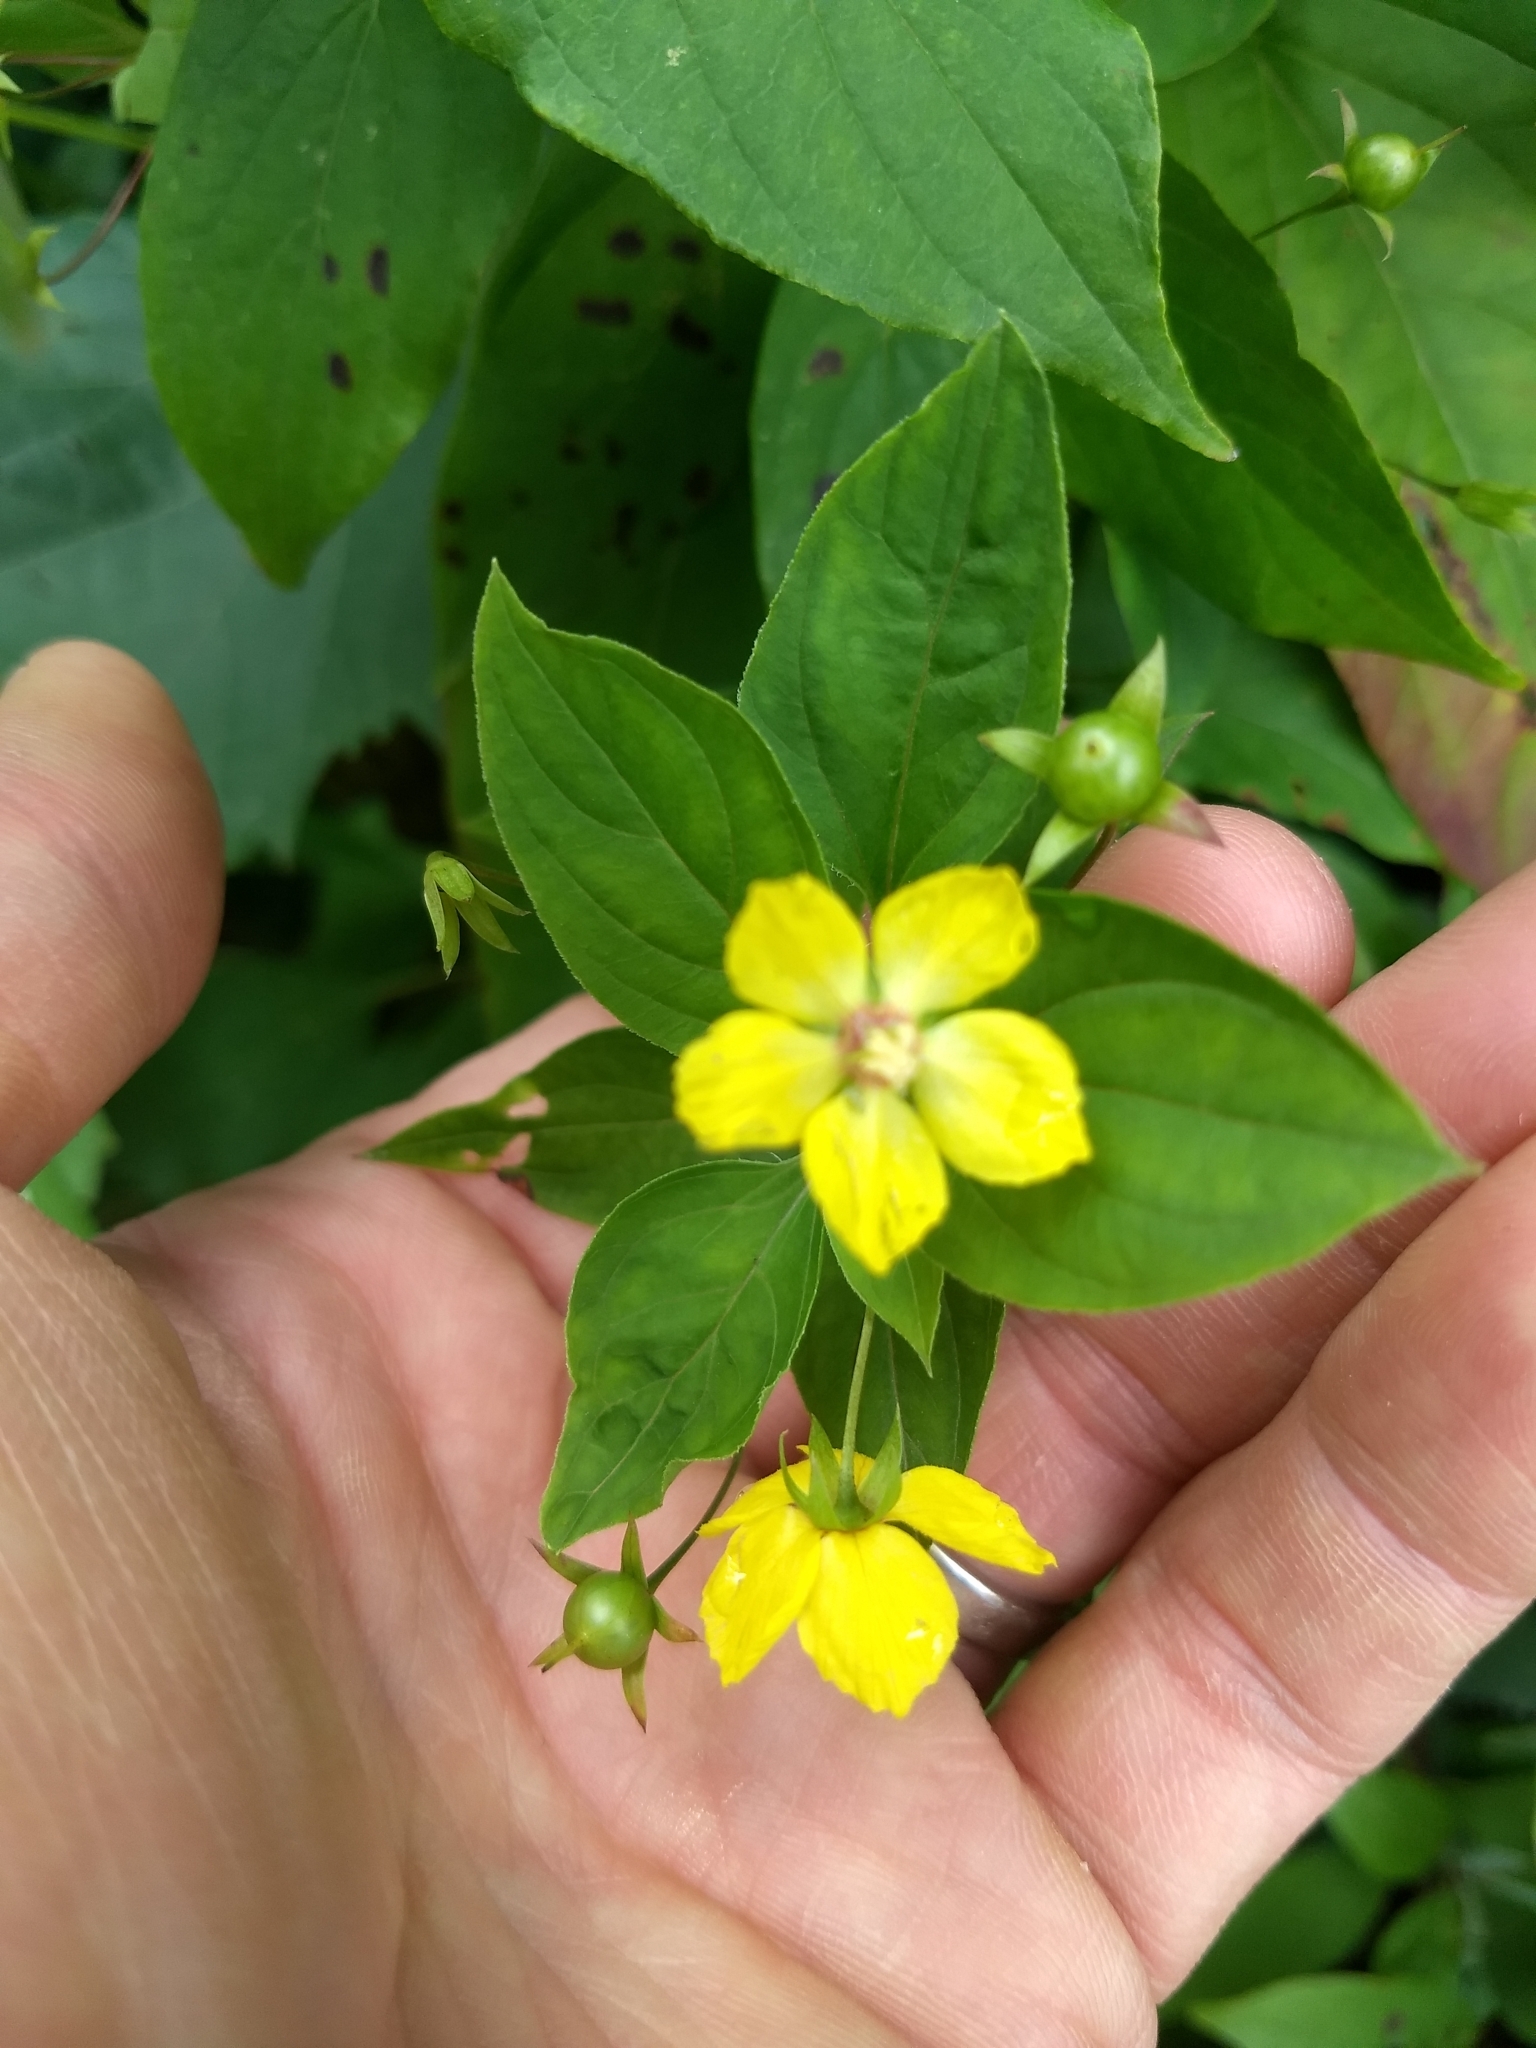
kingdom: Plantae
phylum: Tracheophyta
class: Magnoliopsida
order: Ericales
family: Primulaceae
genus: Lysimachia
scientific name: Lysimachia ciliata
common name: Fringed loosestrife
